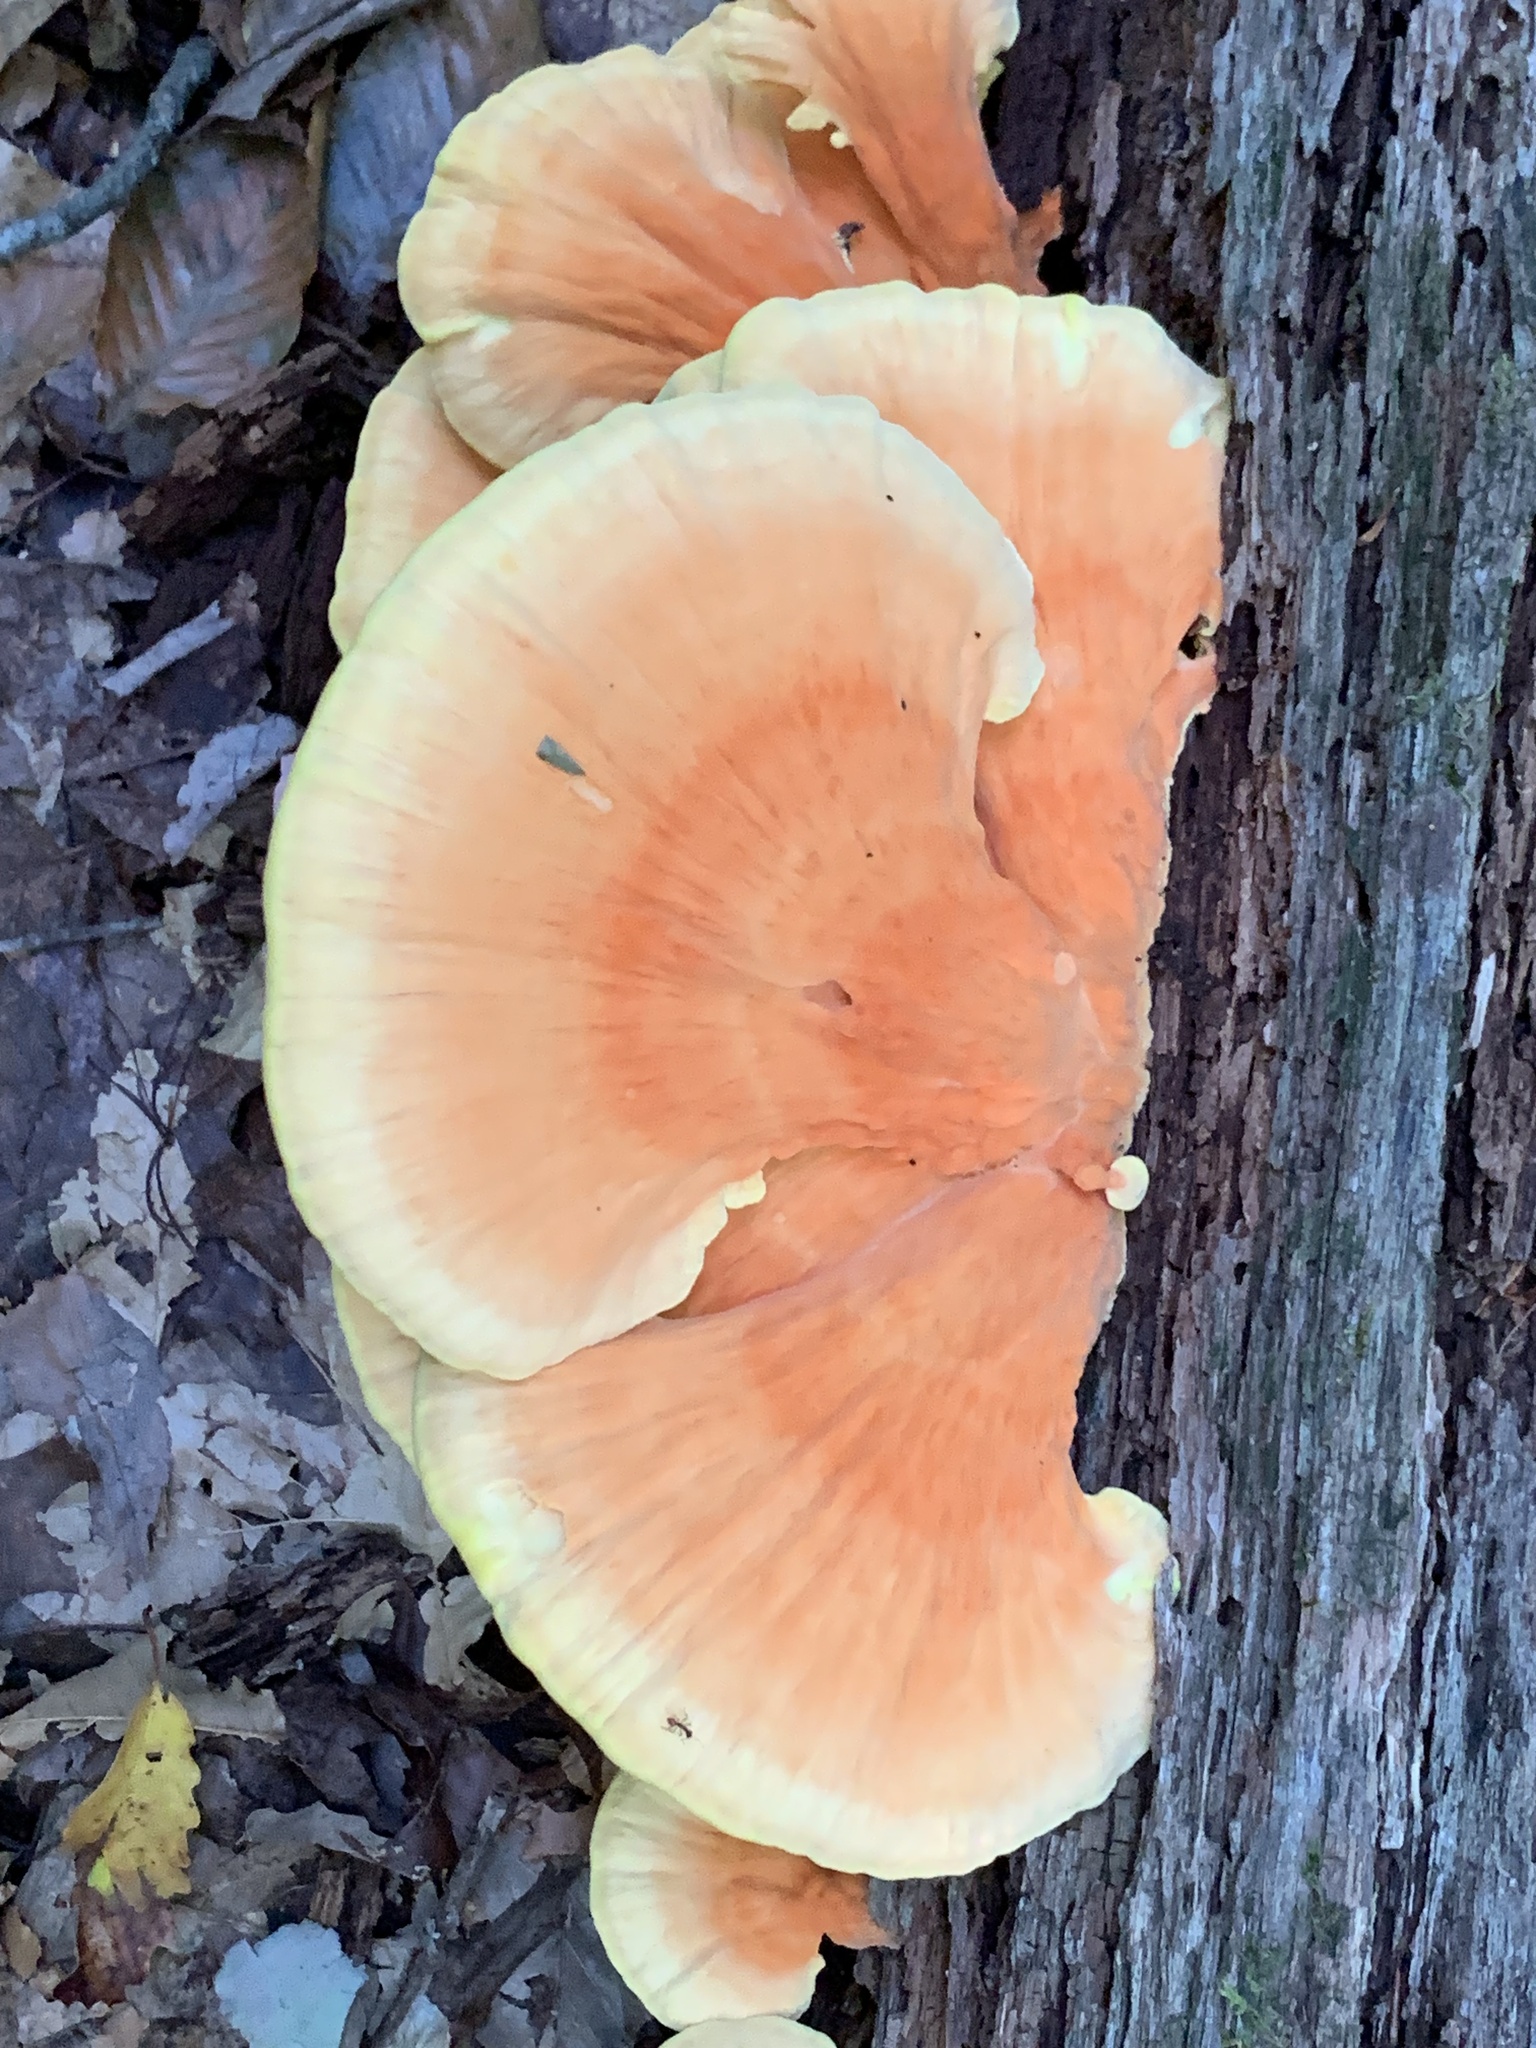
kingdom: Fungi
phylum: Basidiomycota
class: Agaricomycetes
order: Polyporales
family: Laetiporaceae
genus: Laetiporus
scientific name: Laetiporus sulphureus
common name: Chicken of the woods
